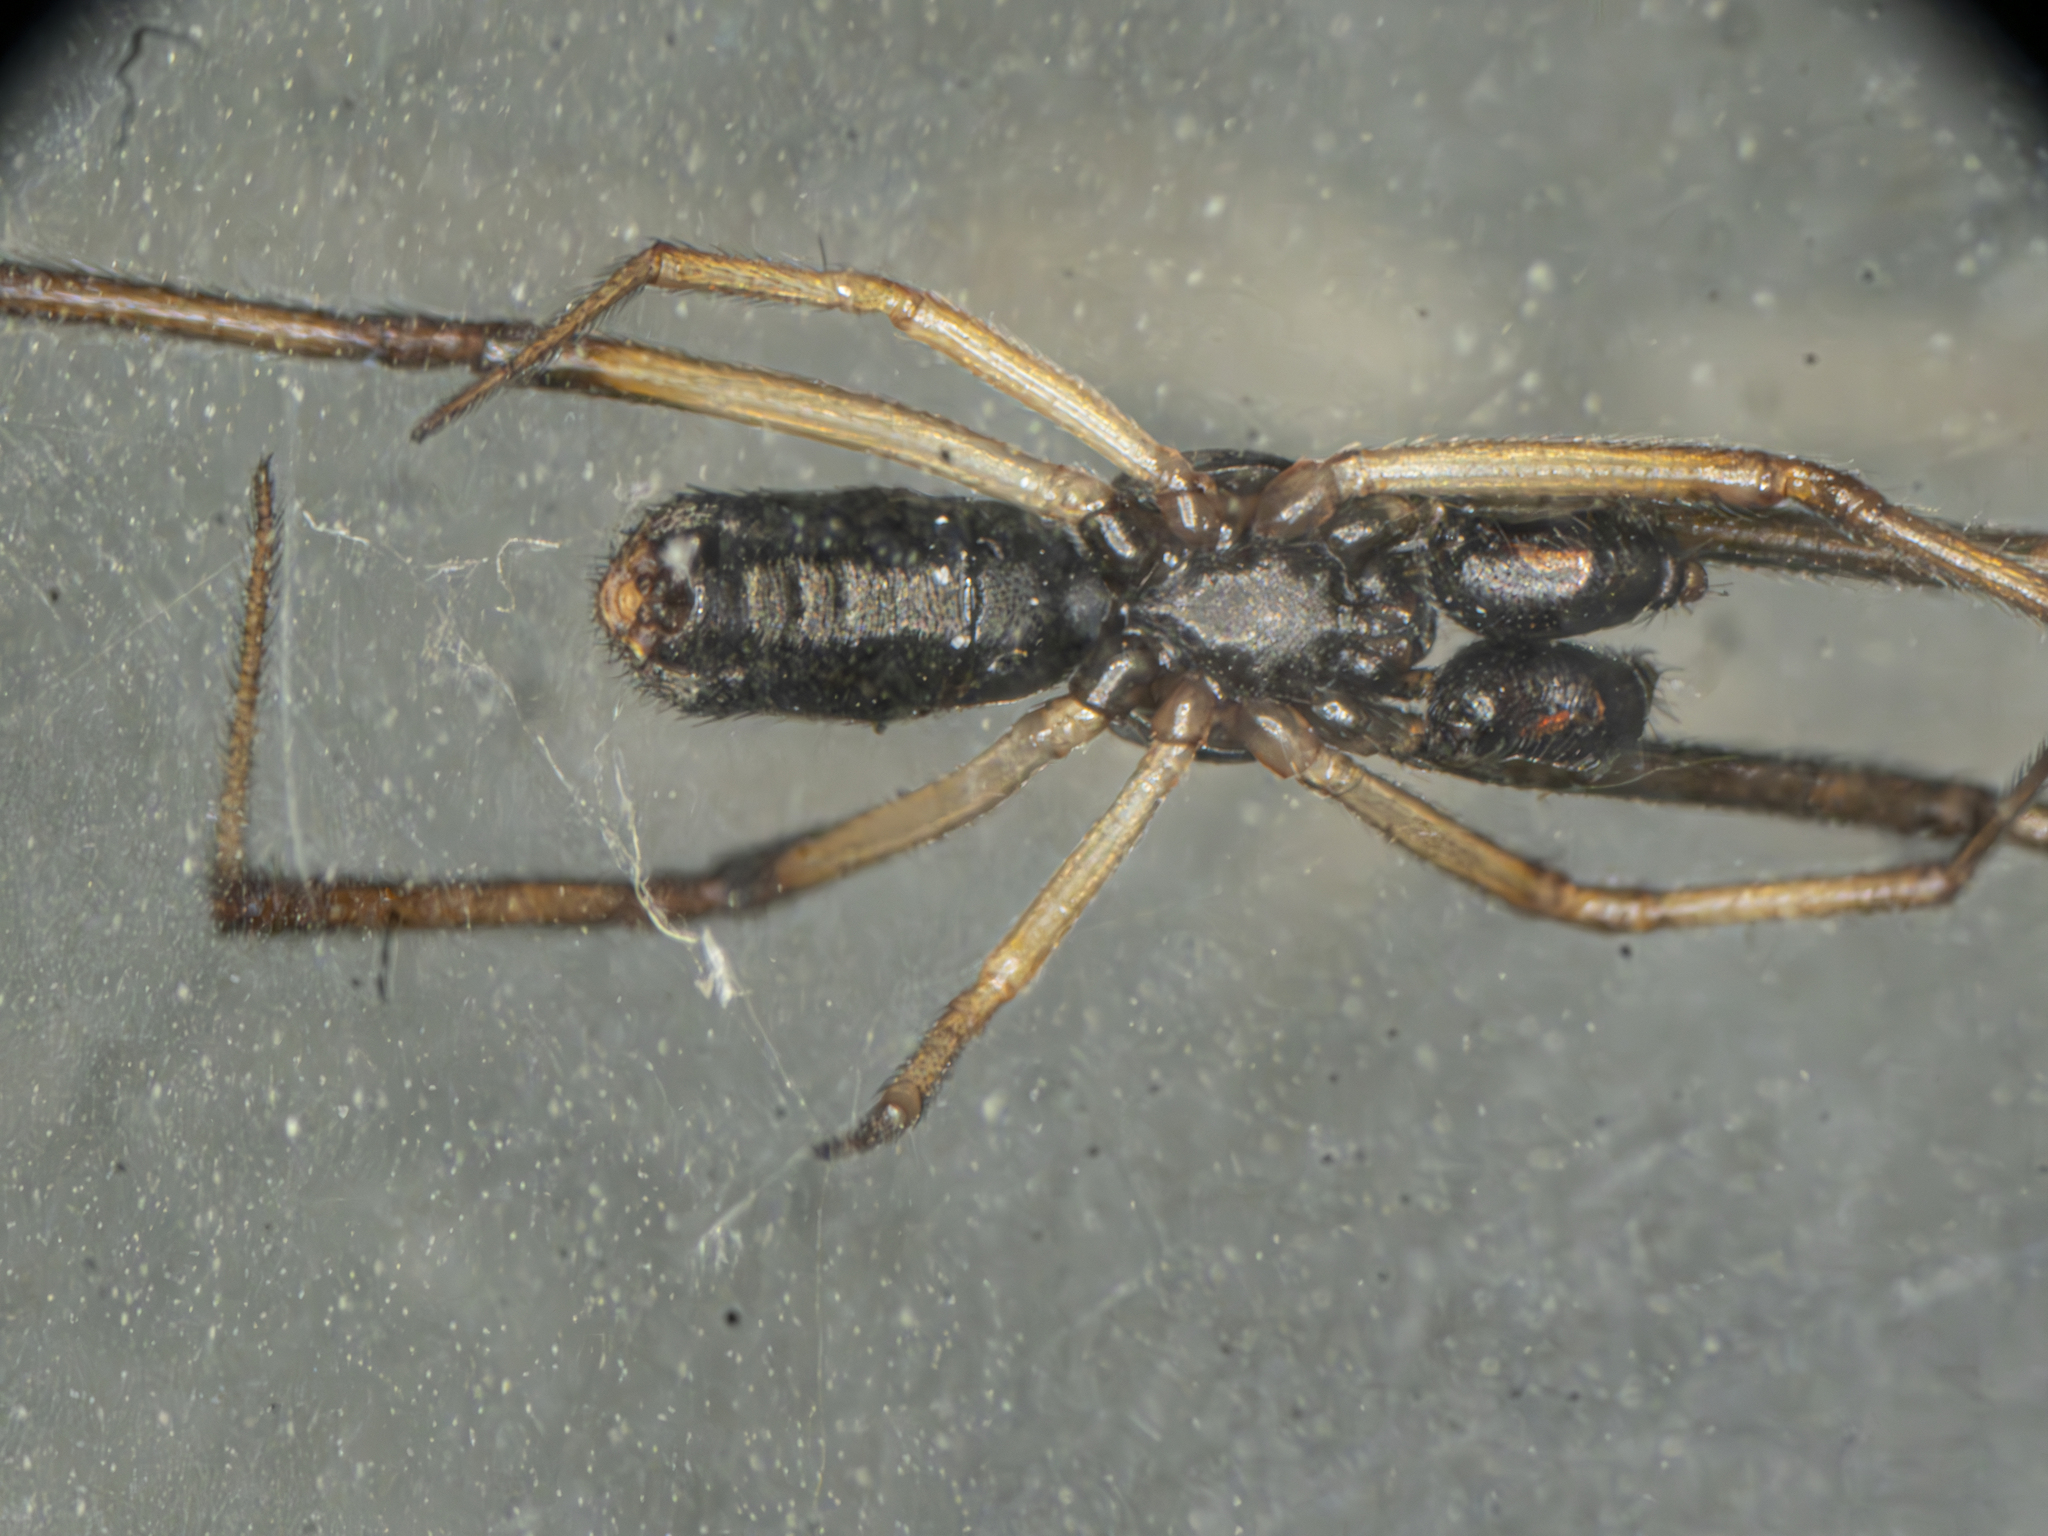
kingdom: Animalia
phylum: Arthropoda
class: Arachnida
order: Araneae
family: Theridiidae
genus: Episinus
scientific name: Episinus truncatus
